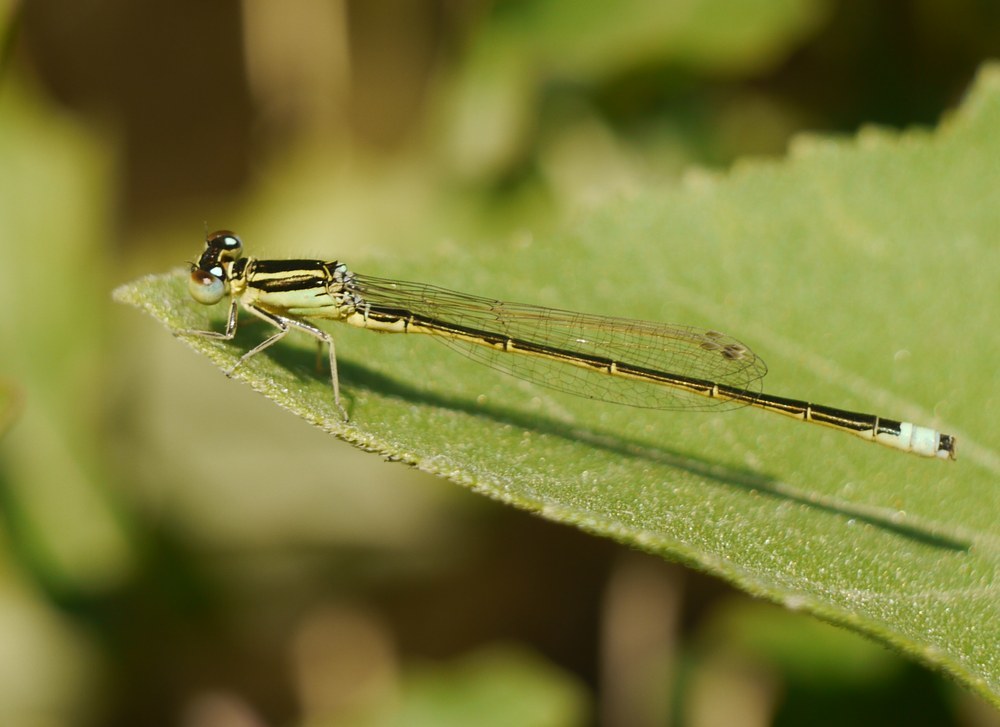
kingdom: Animalia
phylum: Arthropoda
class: Insecta
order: Odonata
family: Coenagrionidae
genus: Ischnura
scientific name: Ischnura pumilio
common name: Scarce blue-tailed damselfly
